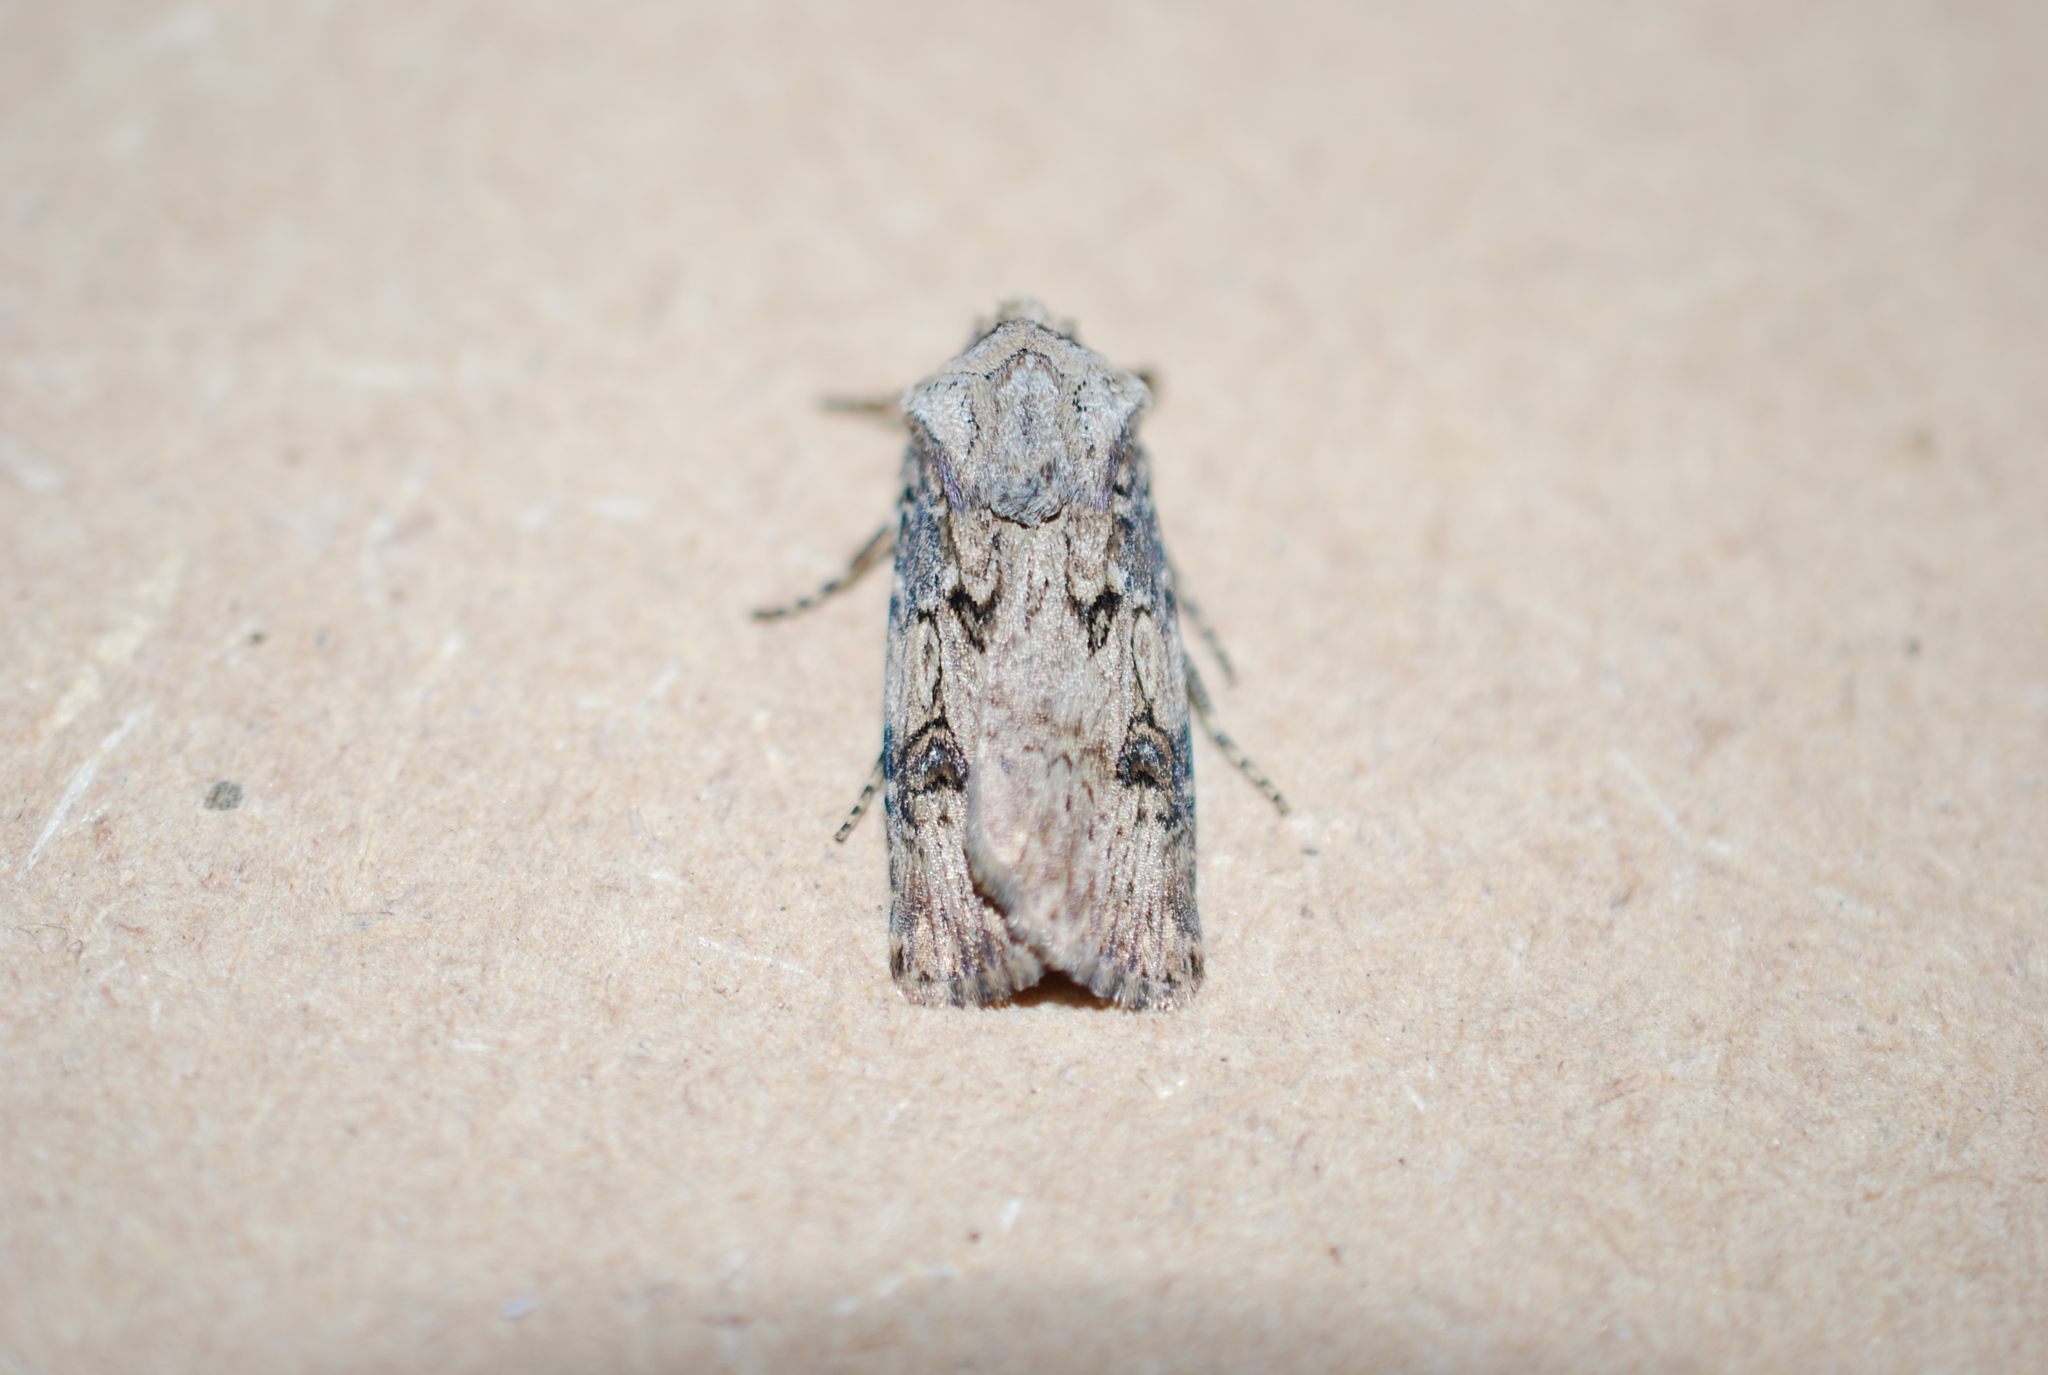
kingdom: Animalia
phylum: Arthropoda
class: Insecta
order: Lepidoptera
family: Noctuidae
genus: Agrotis
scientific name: Agrotis puta
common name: Shuttle-shaped dart
